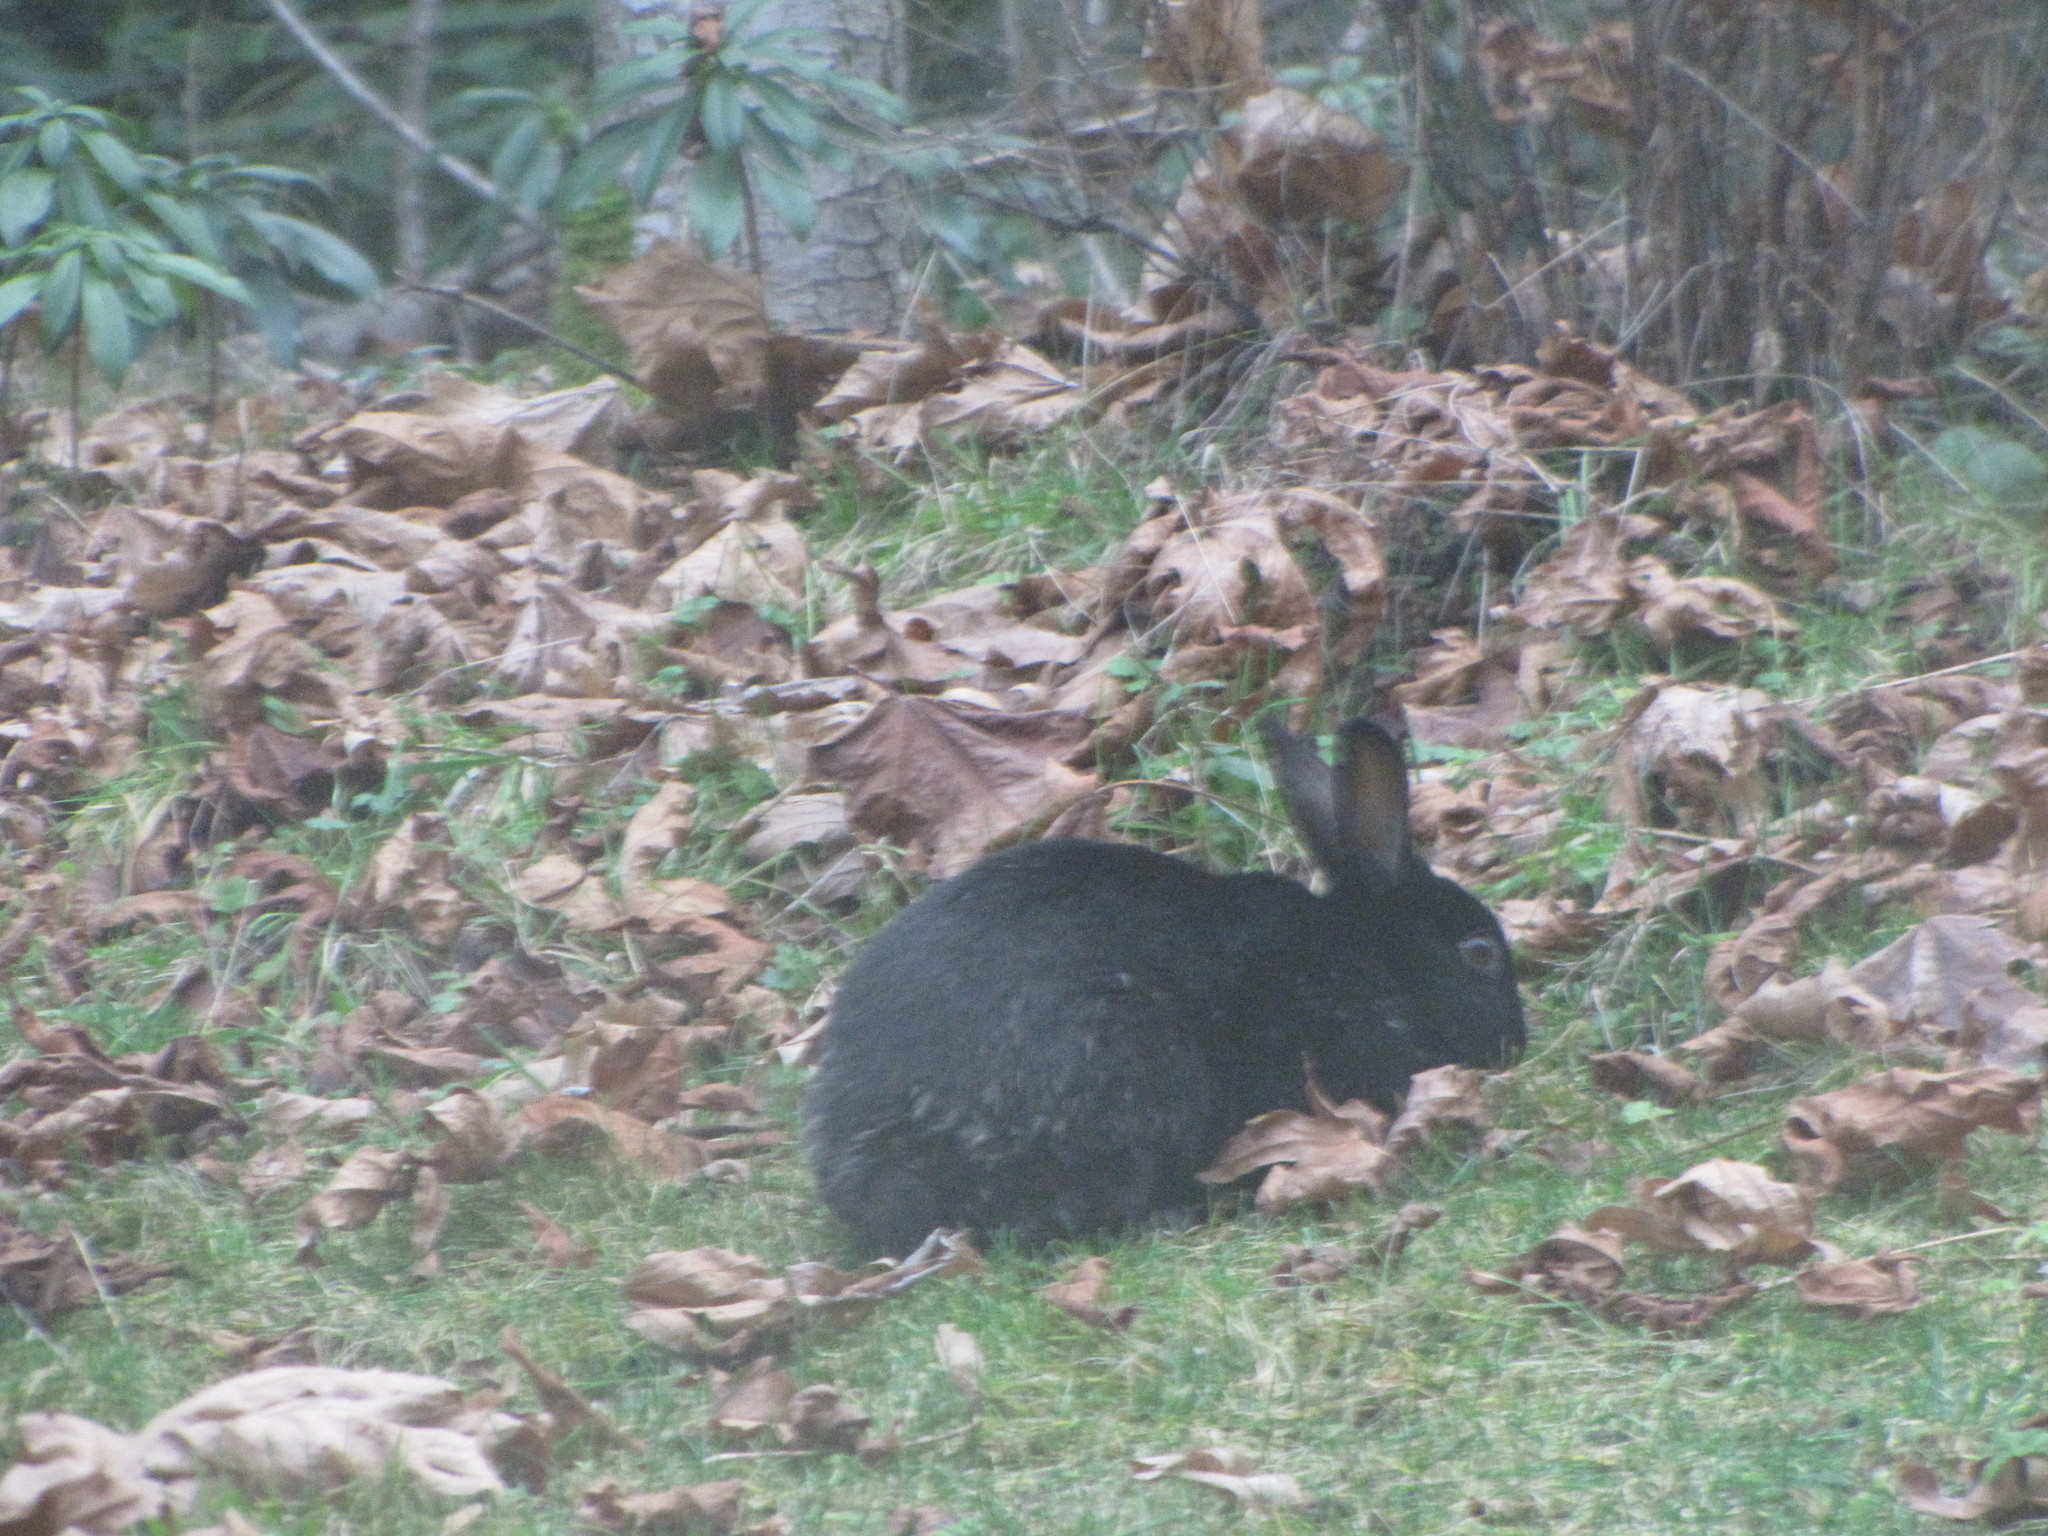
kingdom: Animalia
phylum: Chordata
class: Mammalia
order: Lagomorpha
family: Leporidae
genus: Oryctolagus
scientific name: Oryctolagus cuniculus
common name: European rabbit
